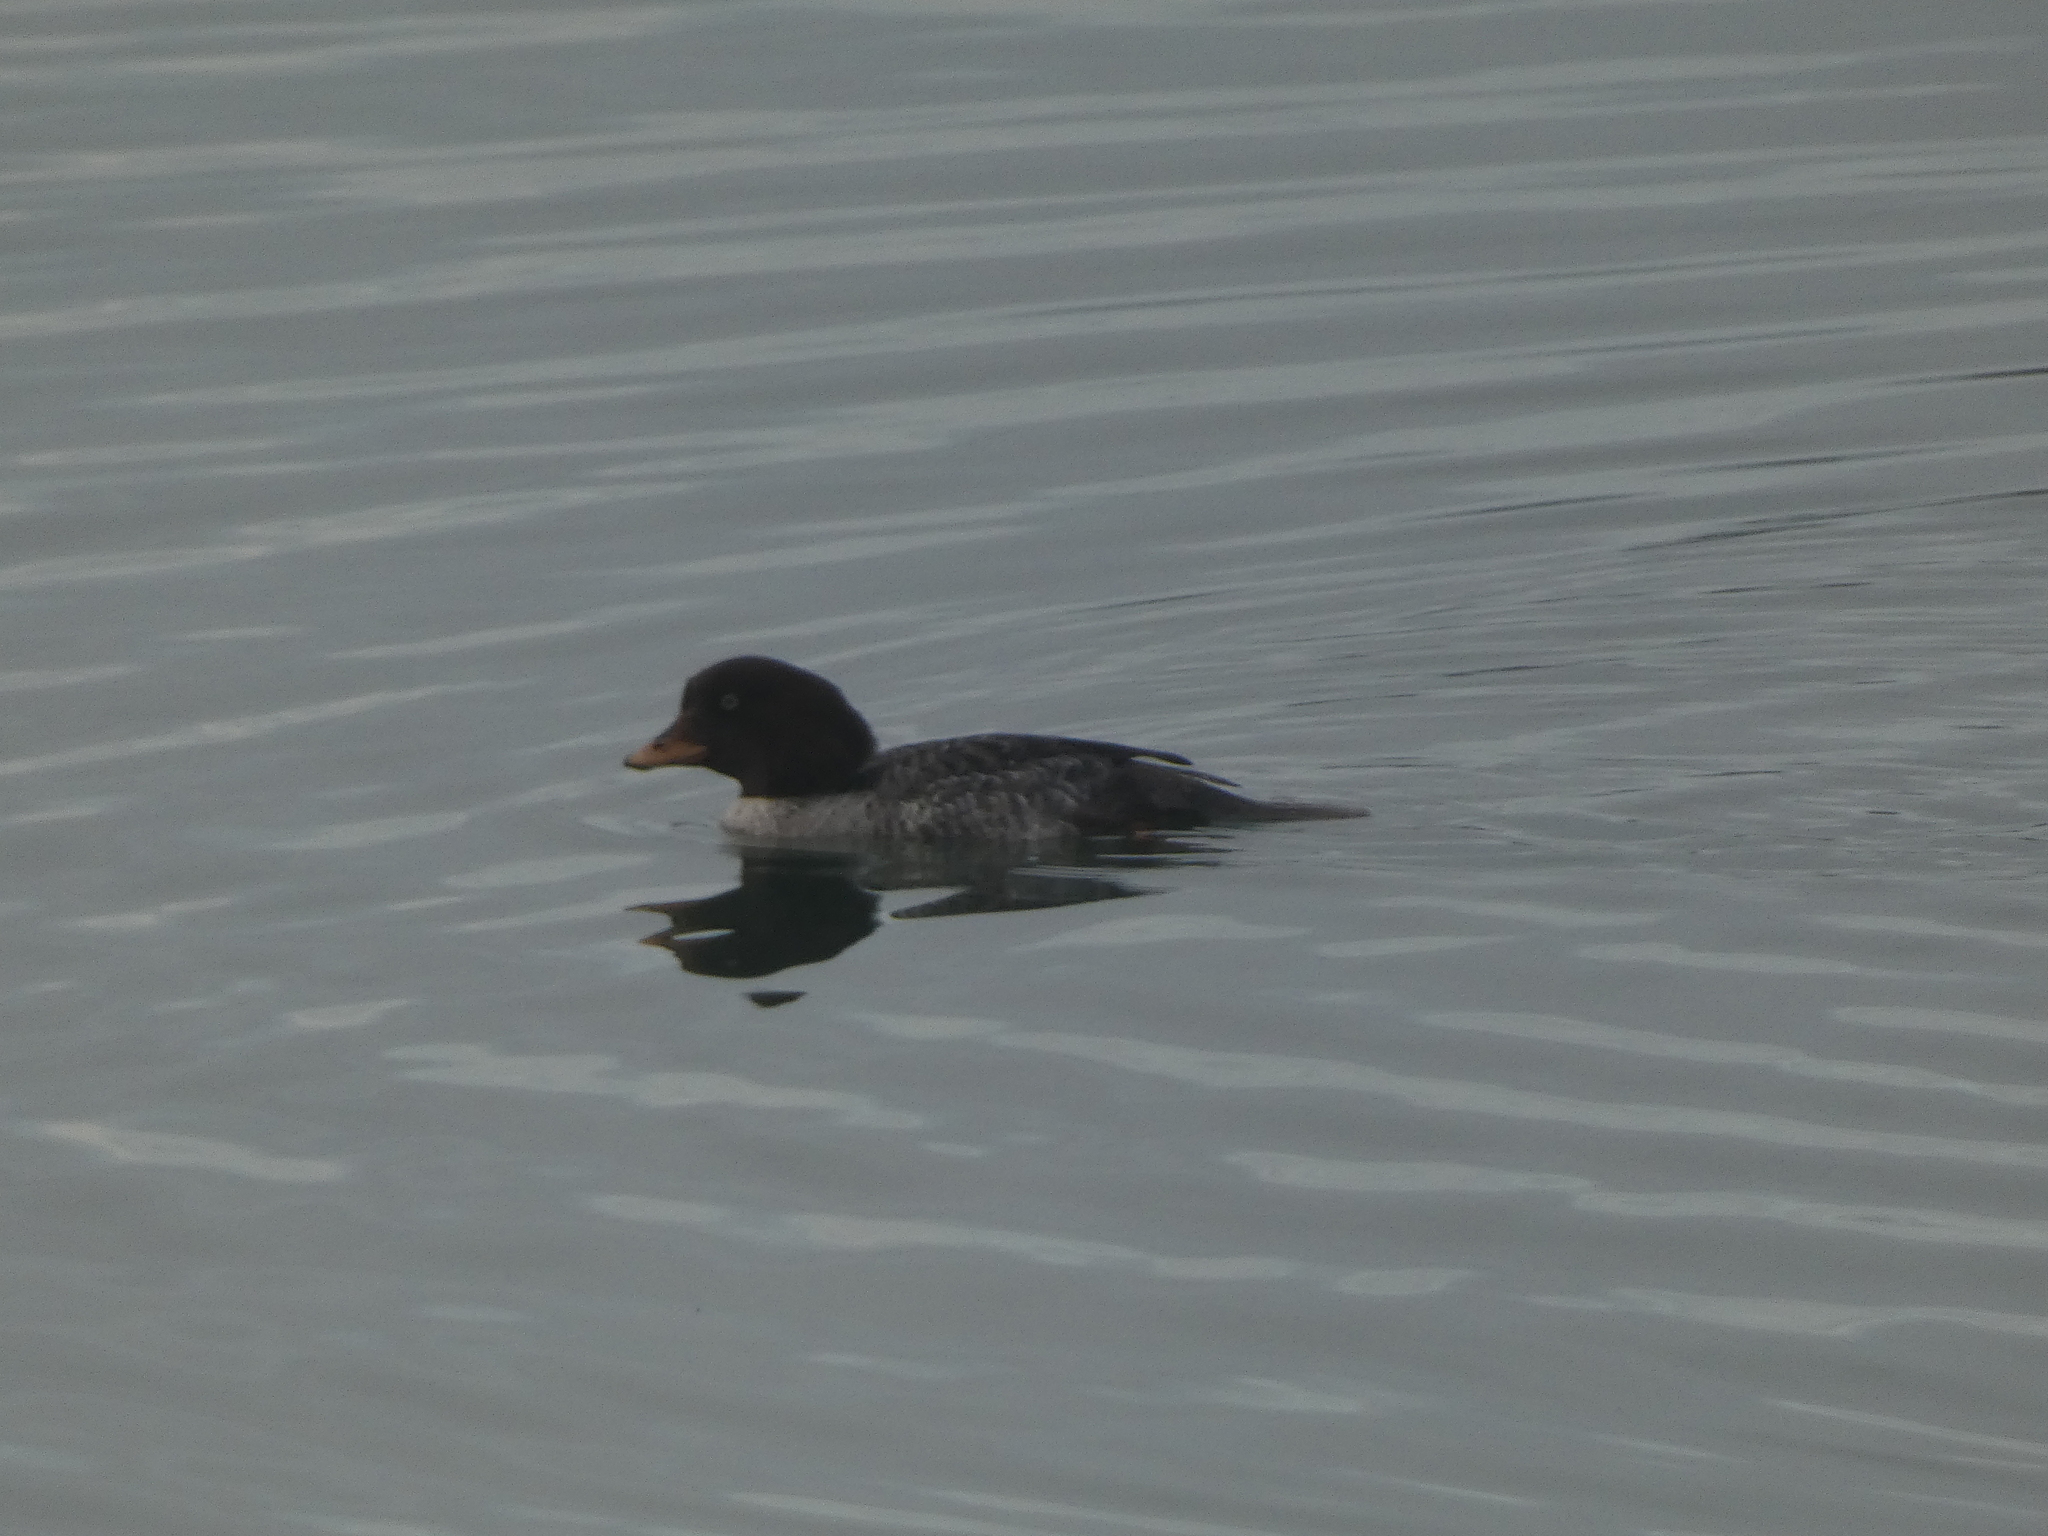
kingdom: Animalia
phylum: Chordata
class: Aves
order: Anseriformes
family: Anatidae
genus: Bucephala
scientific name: Bucephala islandica
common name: Barrow's goldeneye
